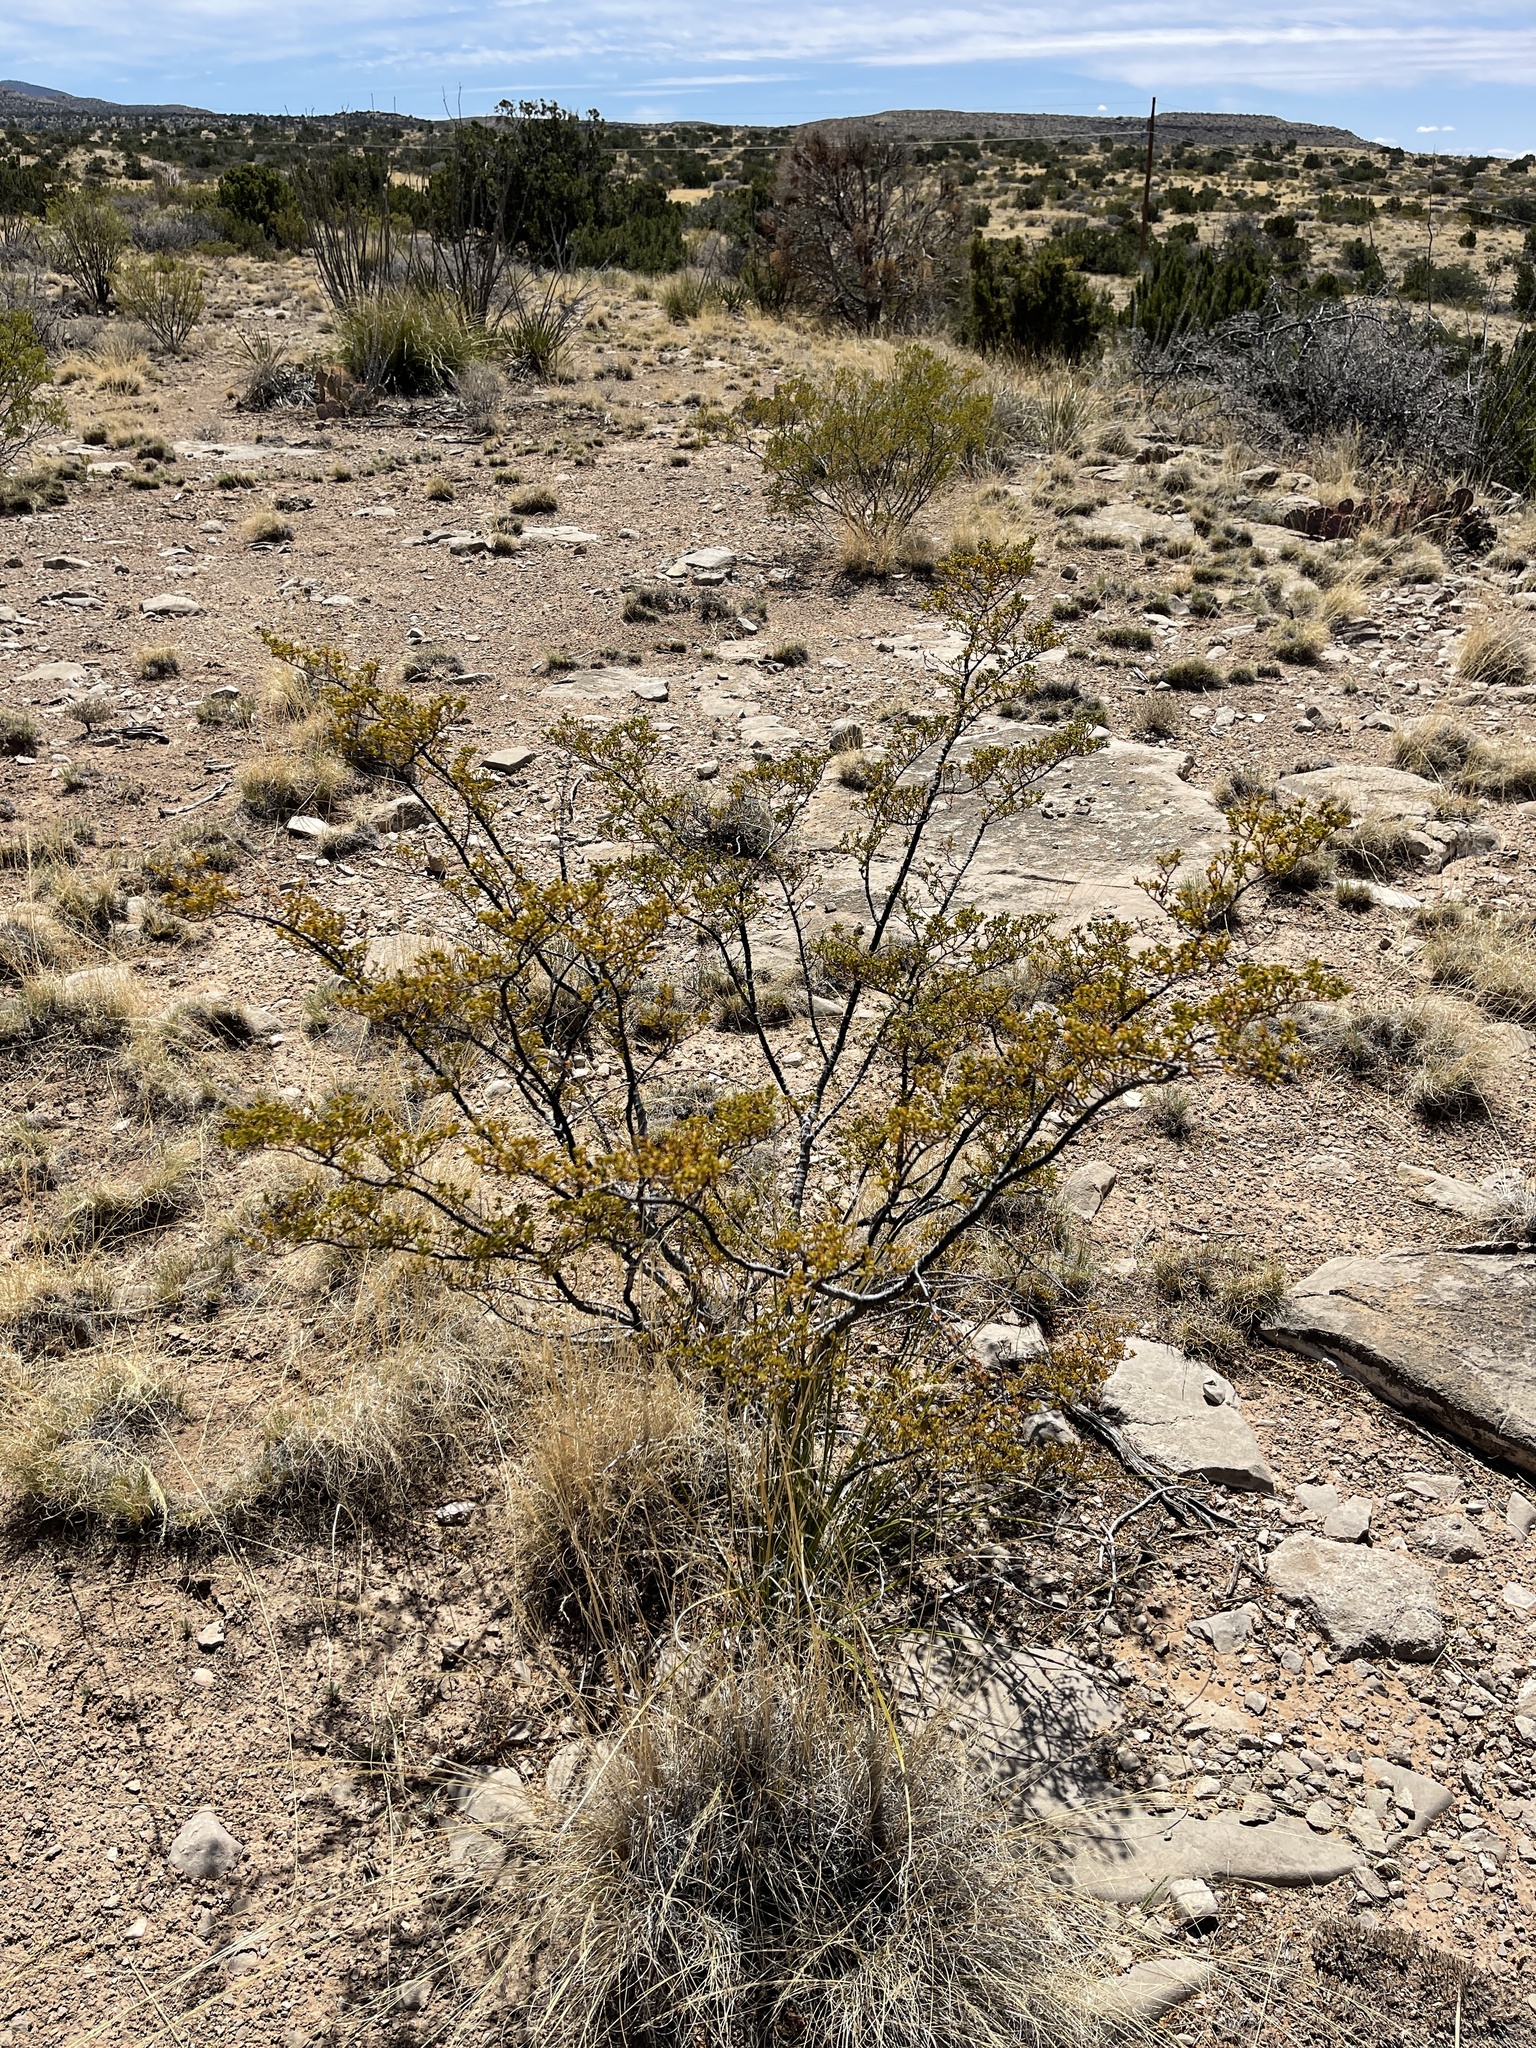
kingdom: Plantae
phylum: Tracheophyta
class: Magnoliopsida
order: Zygophyllales
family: Zygophyllaceae
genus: Larrea
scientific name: Larrea tridentata
